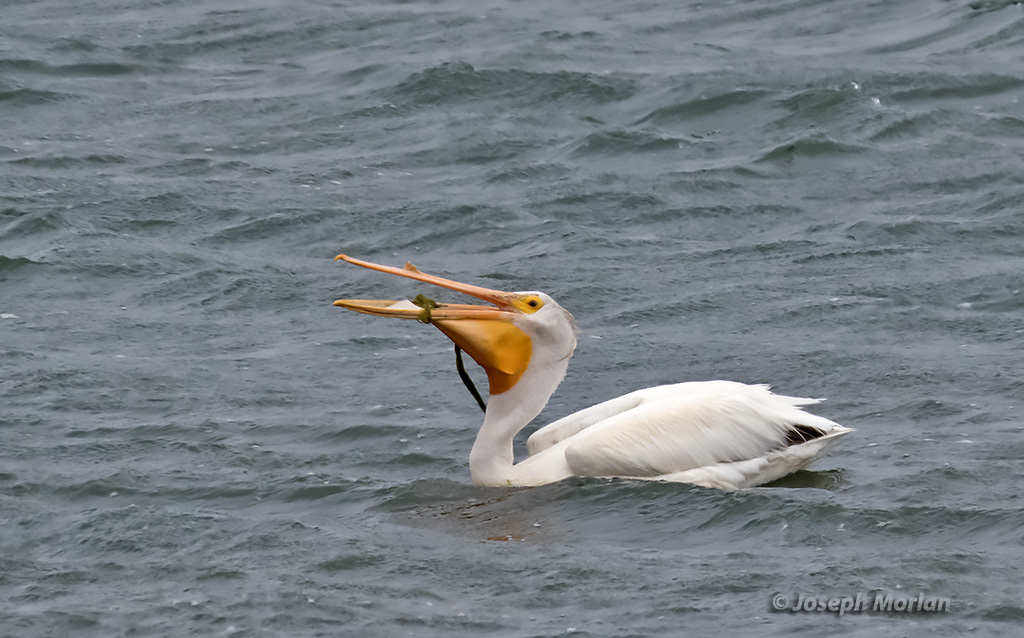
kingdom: Animalia
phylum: Chordata
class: Aves
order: Pelecaniformes
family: Pelecanidae
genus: Pelecanus
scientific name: Pelecanus erythrorhynchos
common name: American white pelican
